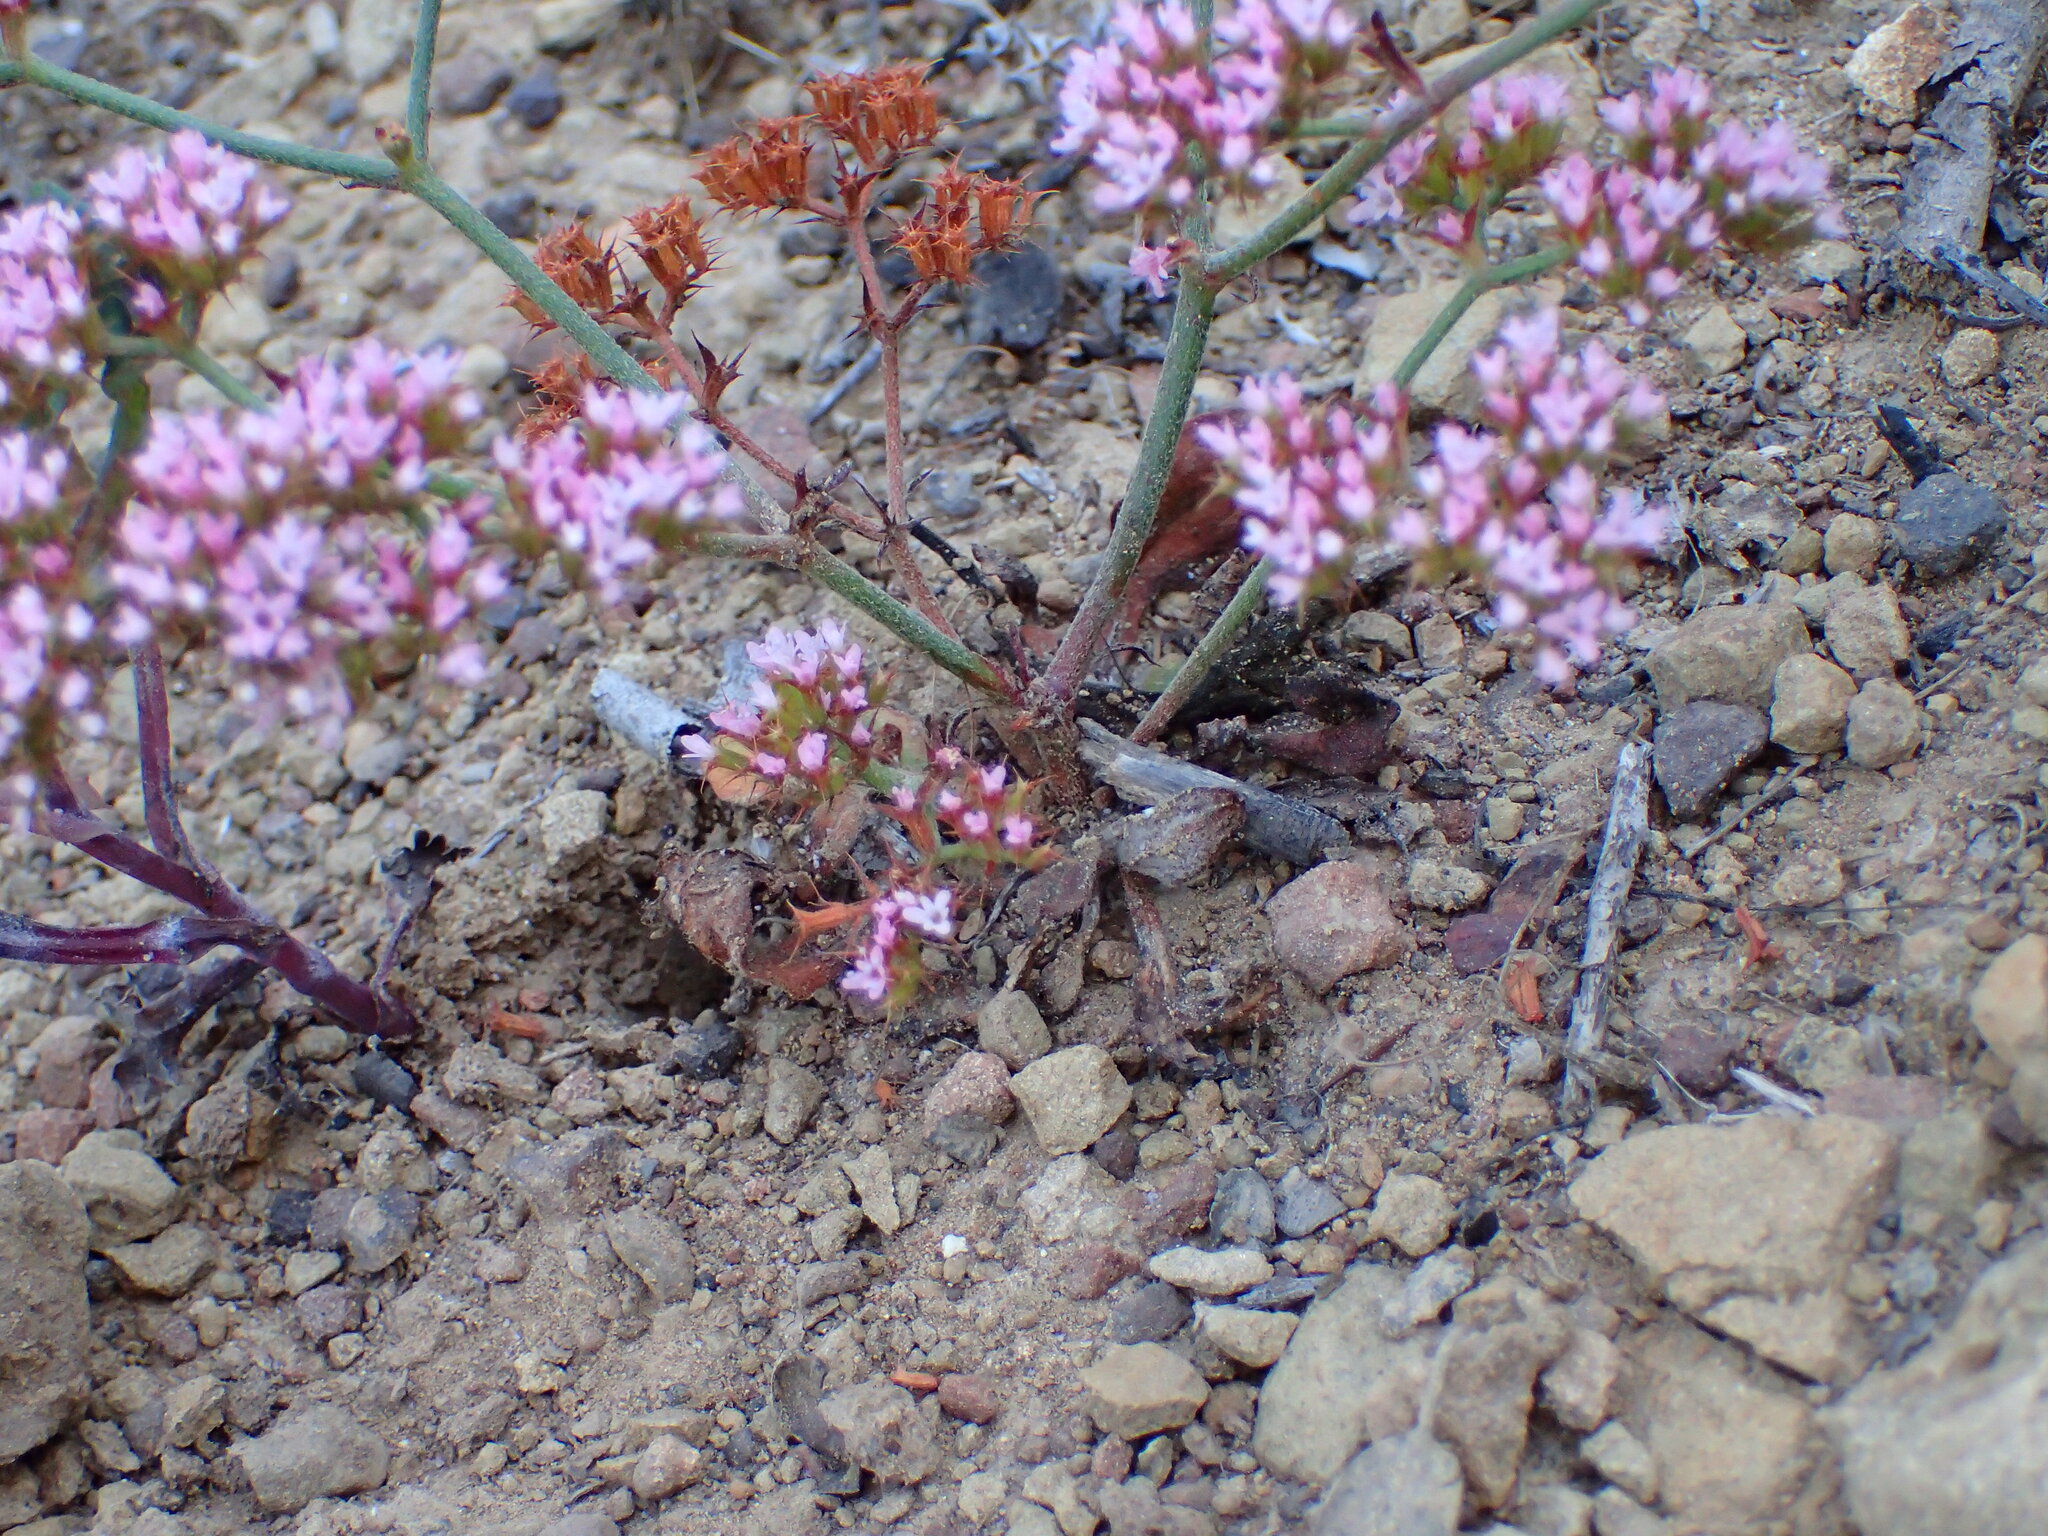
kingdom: Plantae
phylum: Tracheophyta
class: Magnoliopsida
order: Caryophyllales
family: Polygonaceae
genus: Chorizanthe
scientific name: Chorizanthe staticoides
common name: Turkish rugging
